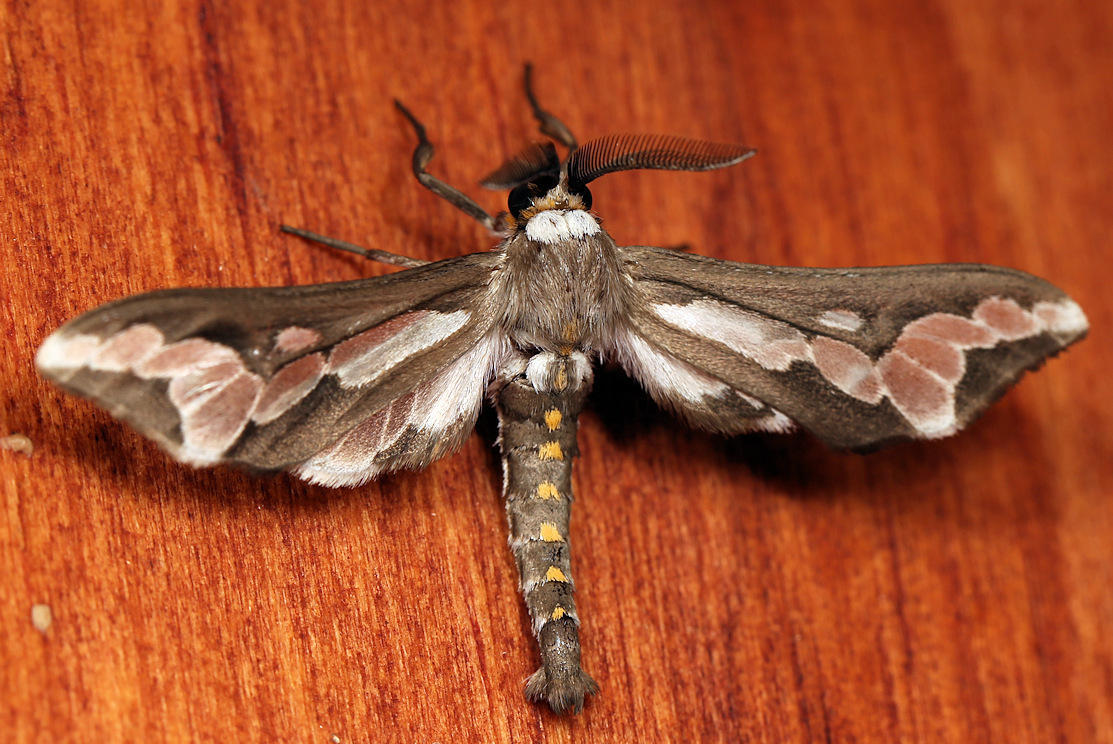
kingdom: Animalia
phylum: Arthropoda
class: Insecta
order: Lepidoptera
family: Erebidae
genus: Thyretes
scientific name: Thyretes caffra
